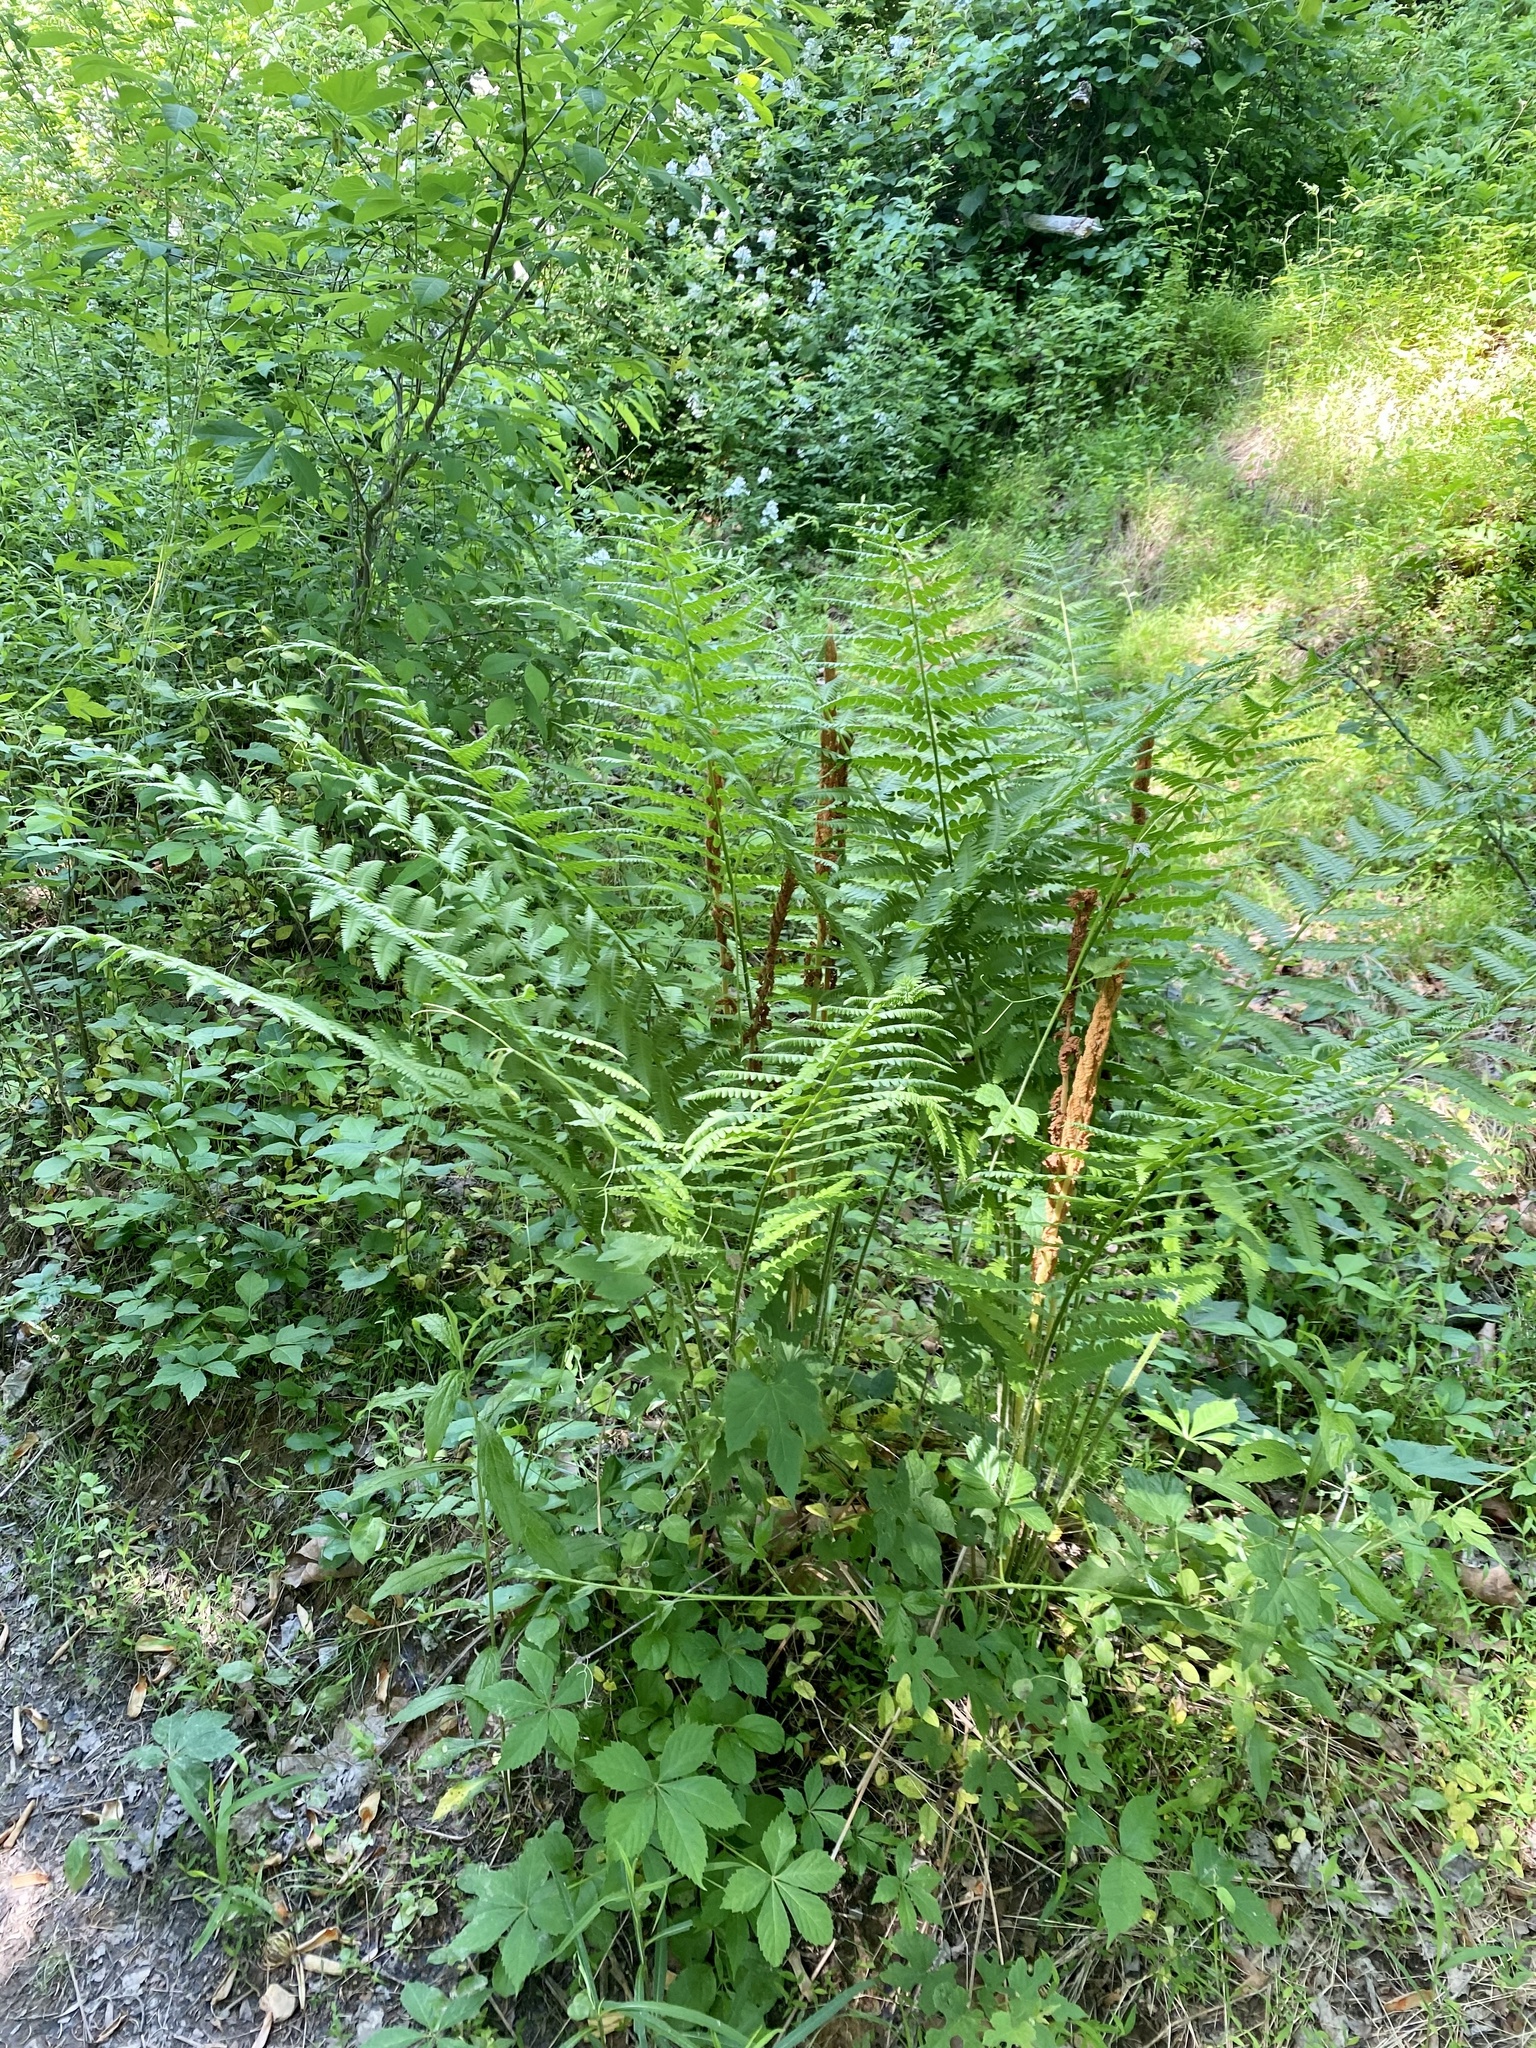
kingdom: Plantae
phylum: Tracheophyta
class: Polypodiopsida
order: Osmundales
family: Osmundaceae
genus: Osmundastrum
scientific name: Osmundastrum cinnamomeum
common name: Cinnamon fern
